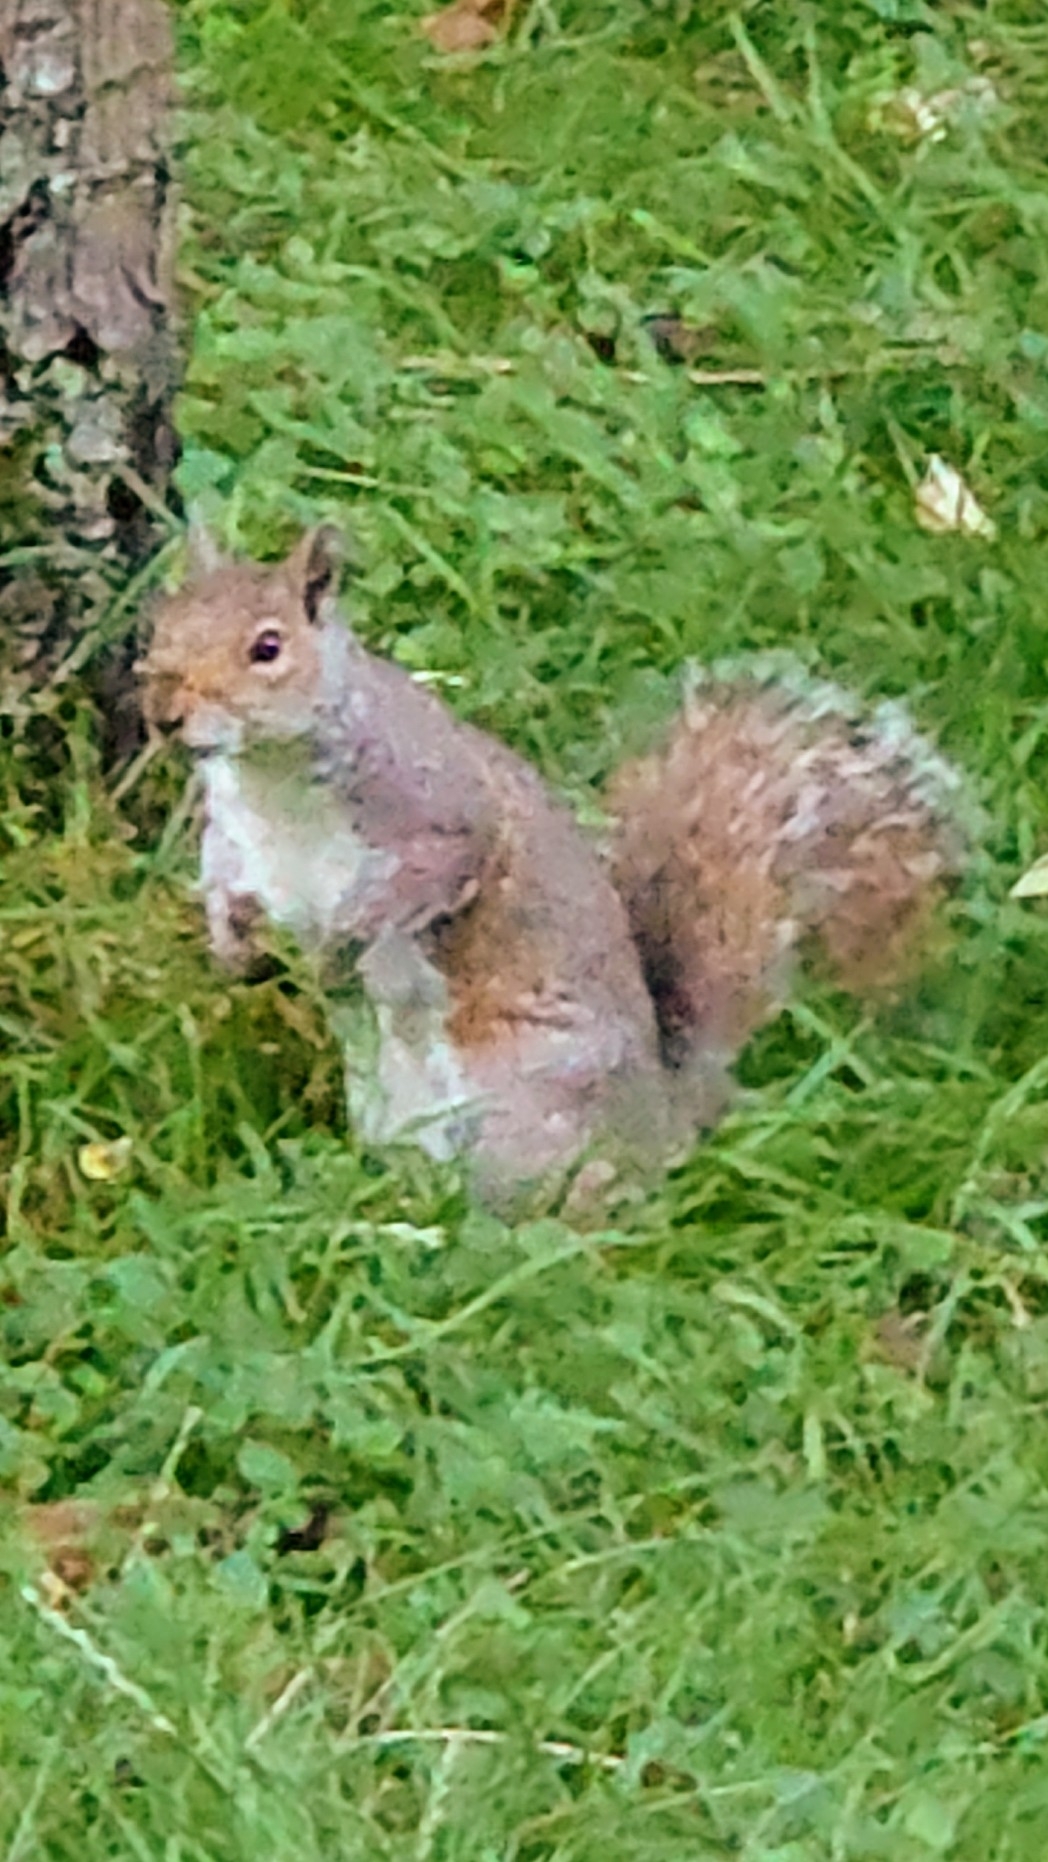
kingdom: Animalia
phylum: Chordata
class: Mammalia
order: Rodentia
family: Sciuridae
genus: Sciurus
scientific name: Sciurus carolinensis
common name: Eastern gray squirrel
